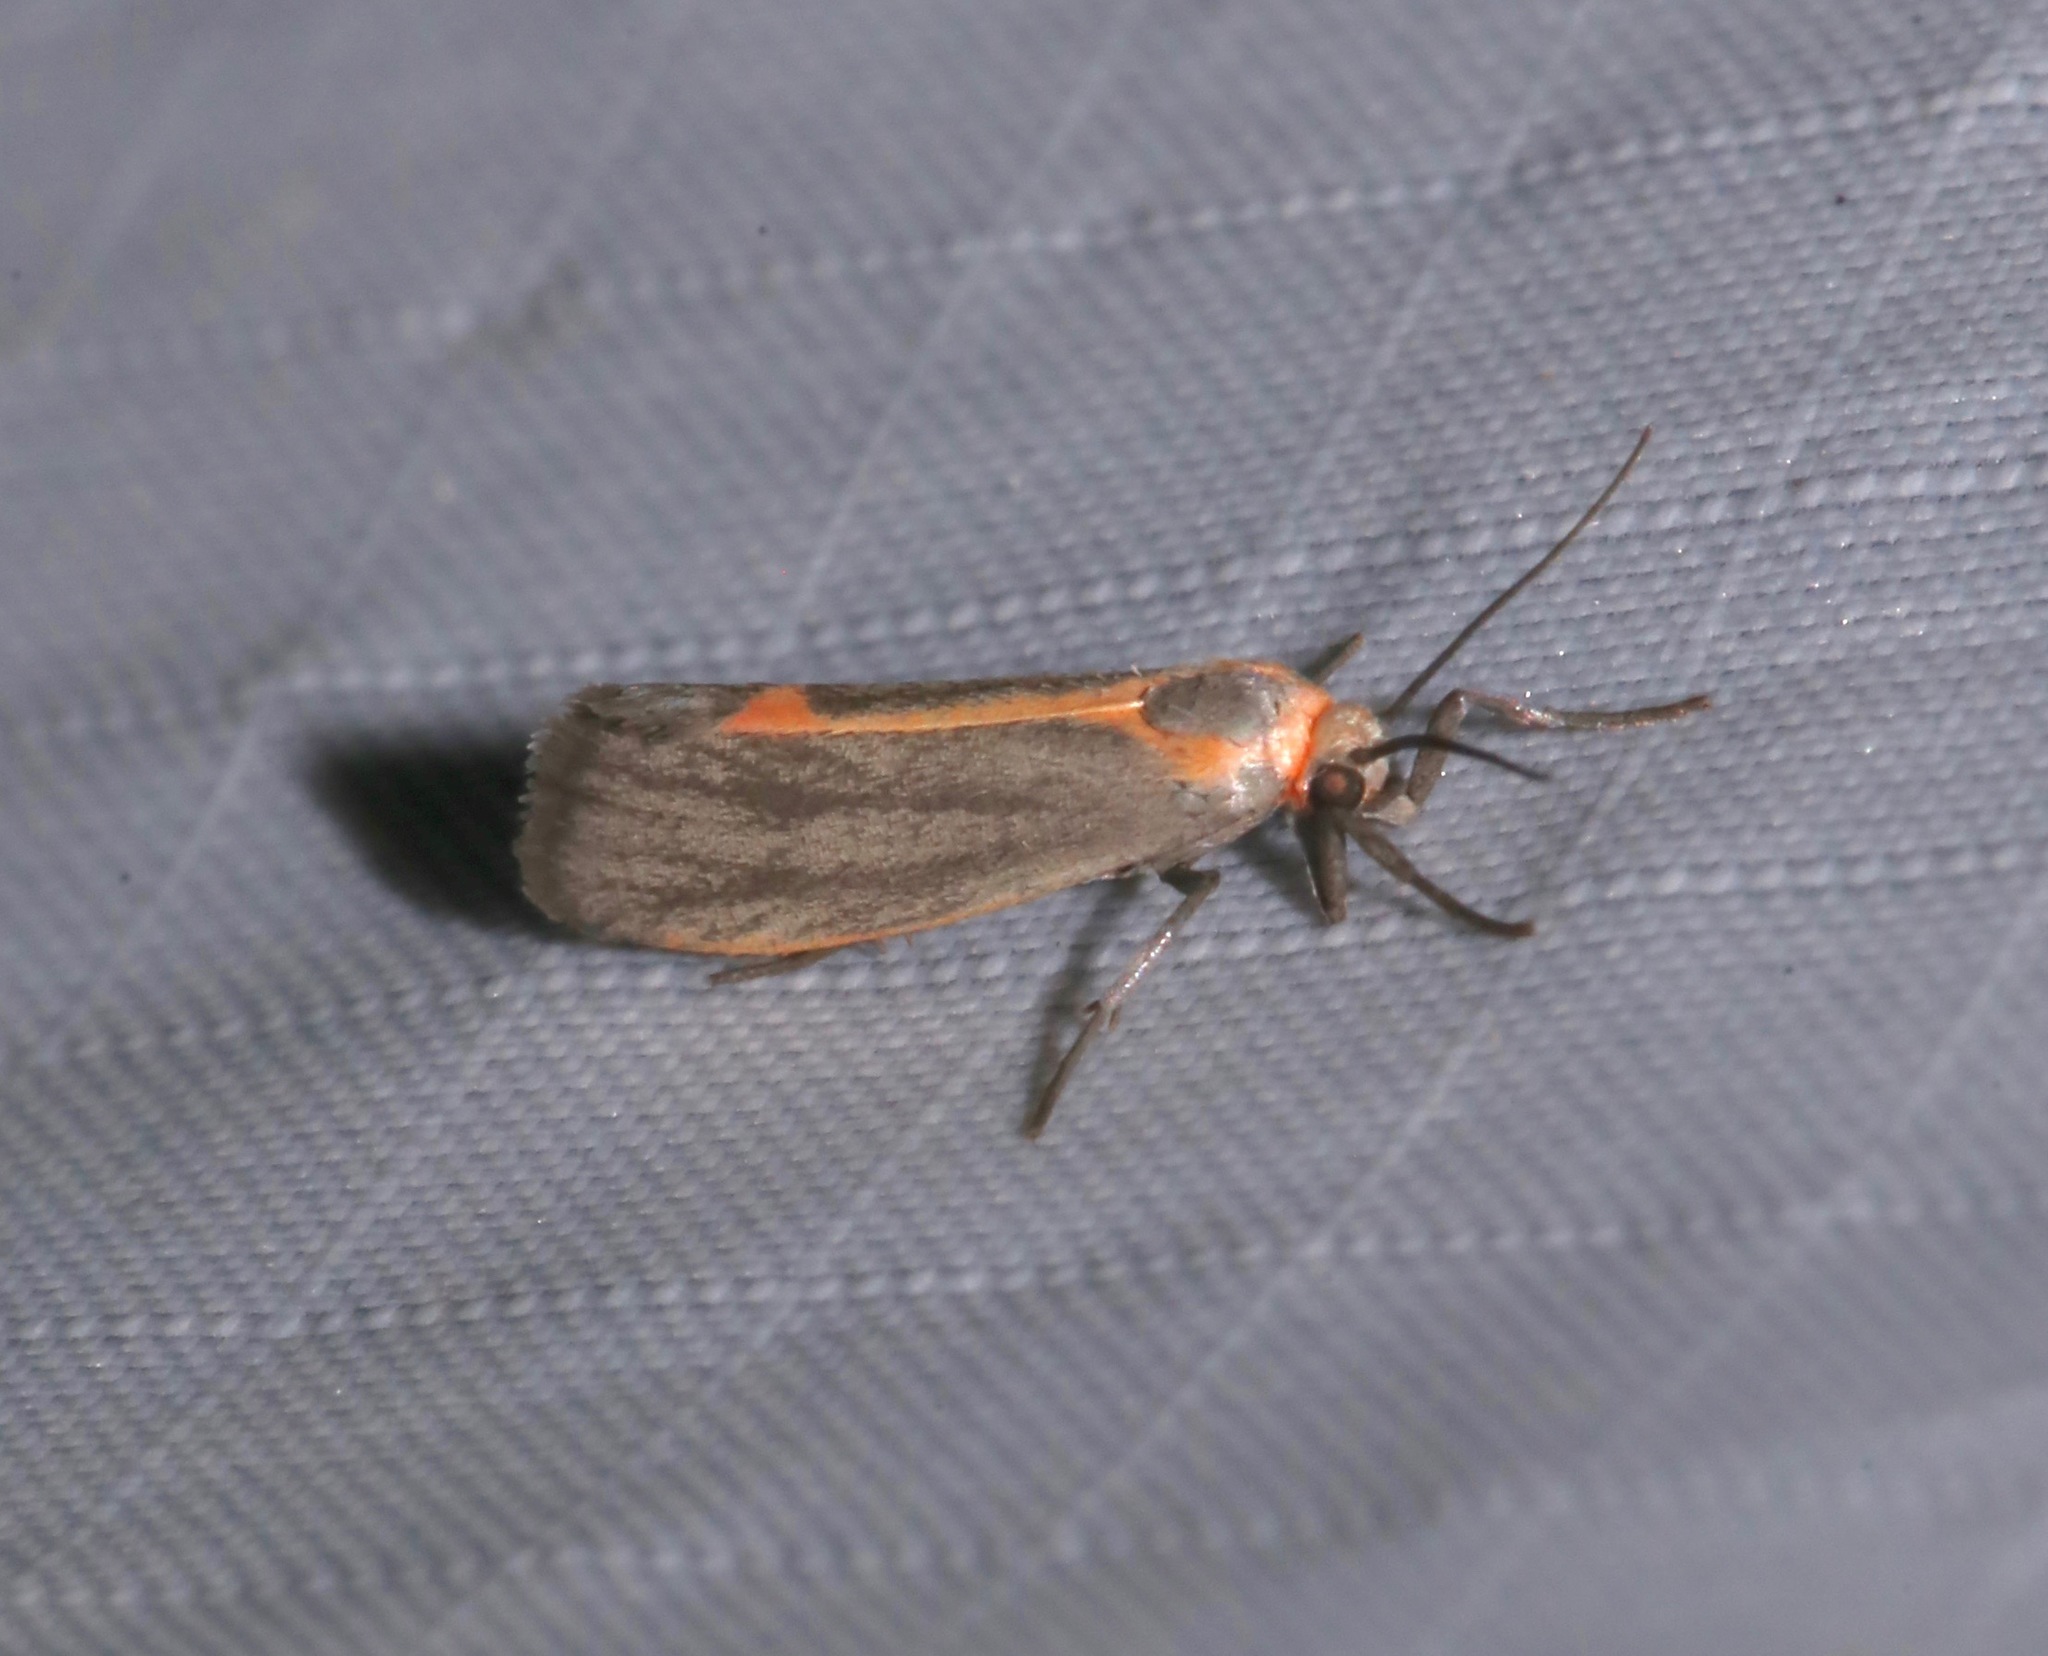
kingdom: Animalia
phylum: Arthropoda
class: Insecta
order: Lepidoptera
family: Erebidae
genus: Cisthene
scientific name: Cisthene striata
